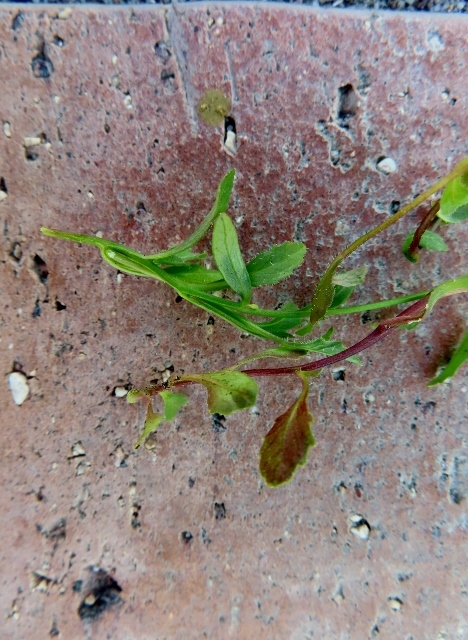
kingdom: Plantae
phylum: Tracheophyta
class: Magnoliopsida
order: Asterales
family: Campanulaceae
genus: Lobelia
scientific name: Lobelia erinus
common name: Edging lobelia
